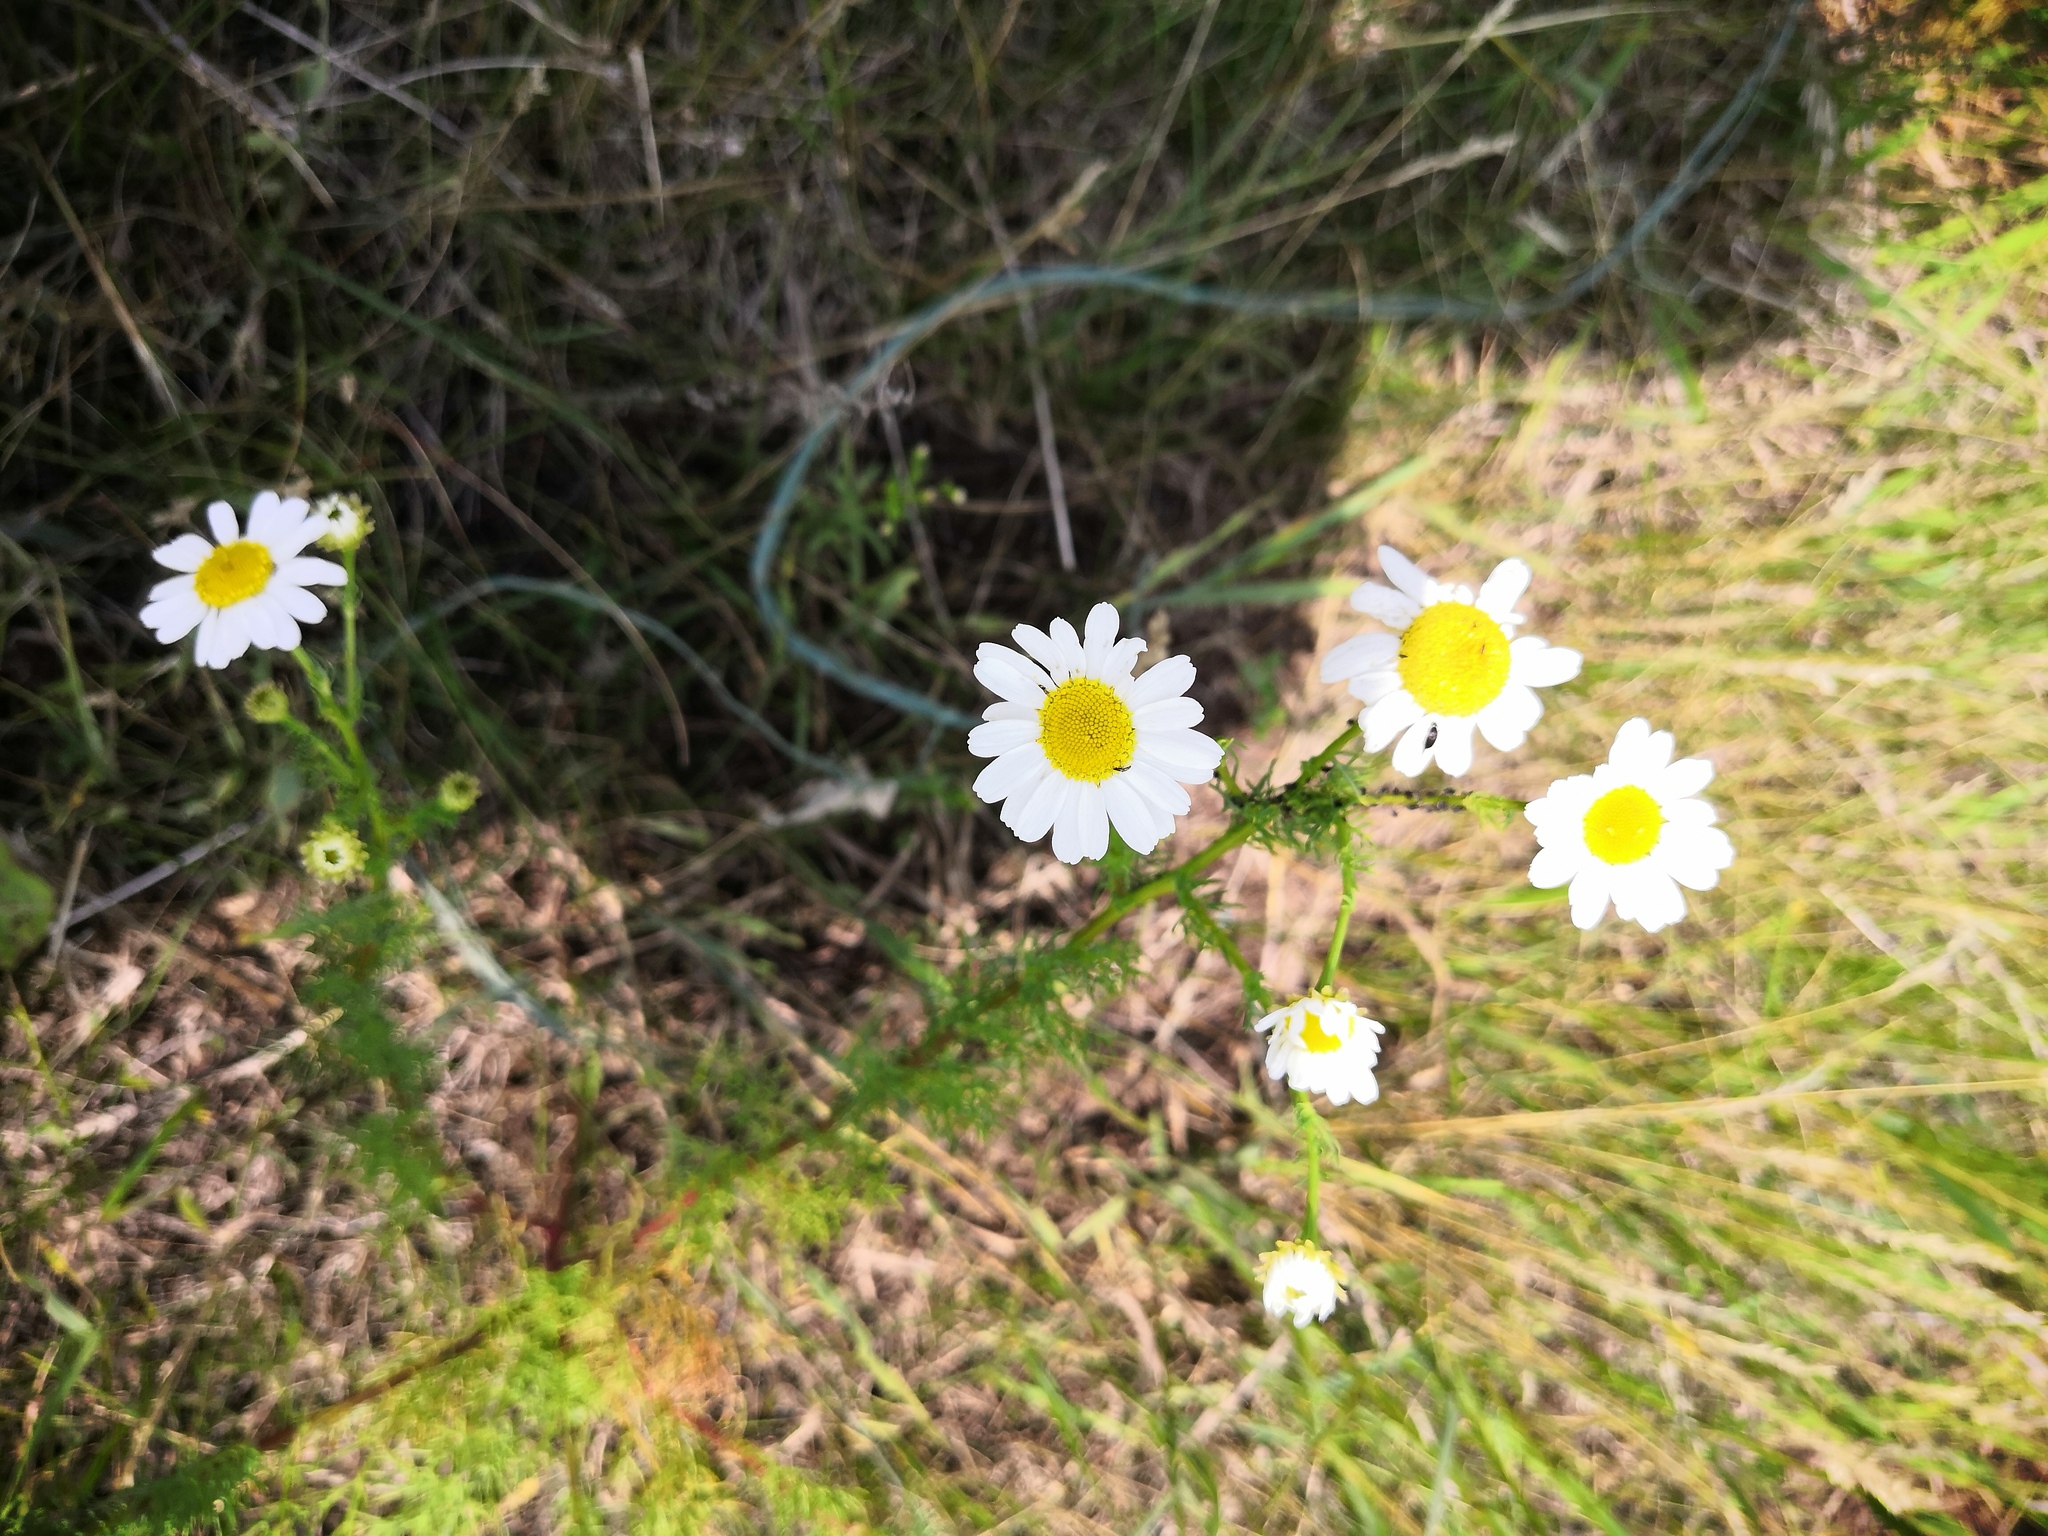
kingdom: Plantae
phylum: Tracheophyta
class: Magnoliopsida
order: Asterales
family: Asteraceae
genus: Tripleurospermum
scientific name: Tripleurospermum inodorum
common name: Scentless mayweed
